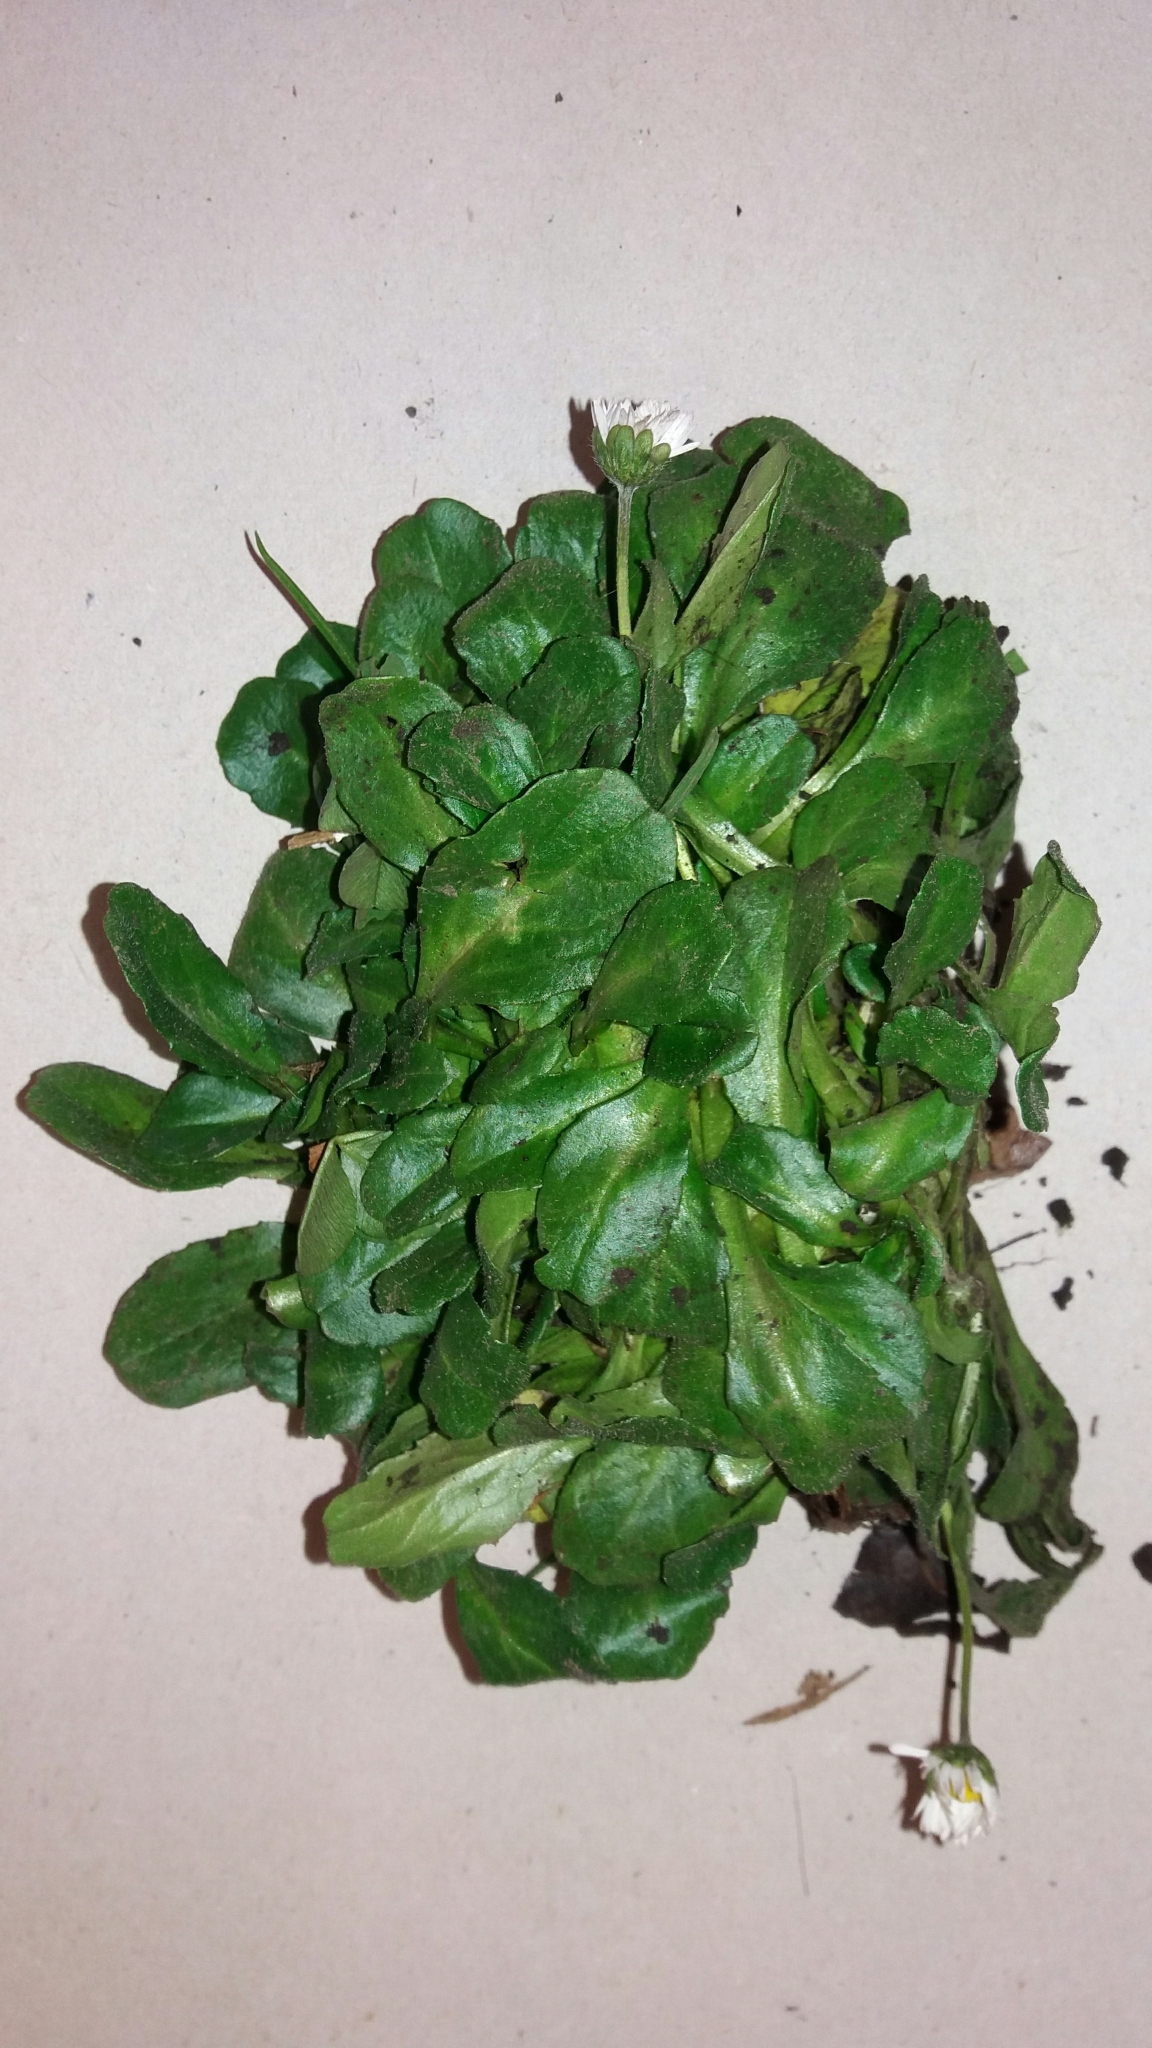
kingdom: Plantae
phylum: Tracheophyta
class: Magnoliopsida
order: Asterales
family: Asteraceae
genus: Bellis
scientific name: Bellis perennis
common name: Lawndaisy
